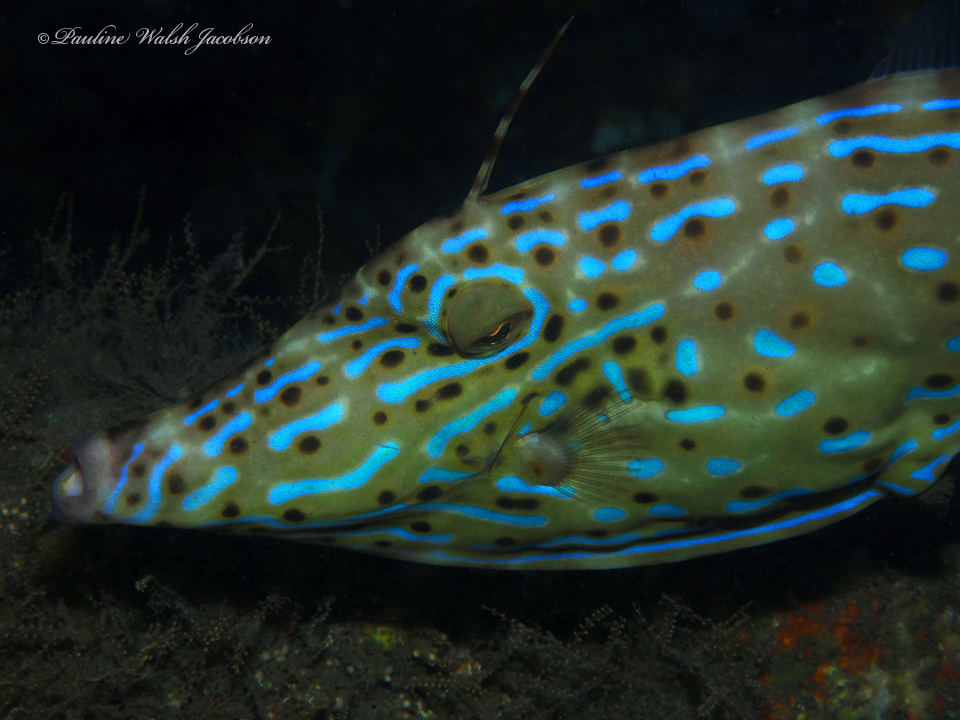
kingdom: Animalia
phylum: Chordata
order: Tetraodontiformes
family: Monacanthidae
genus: Aluterus
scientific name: Aluterus scriptus
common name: Scribbled leatherjacket filefish
